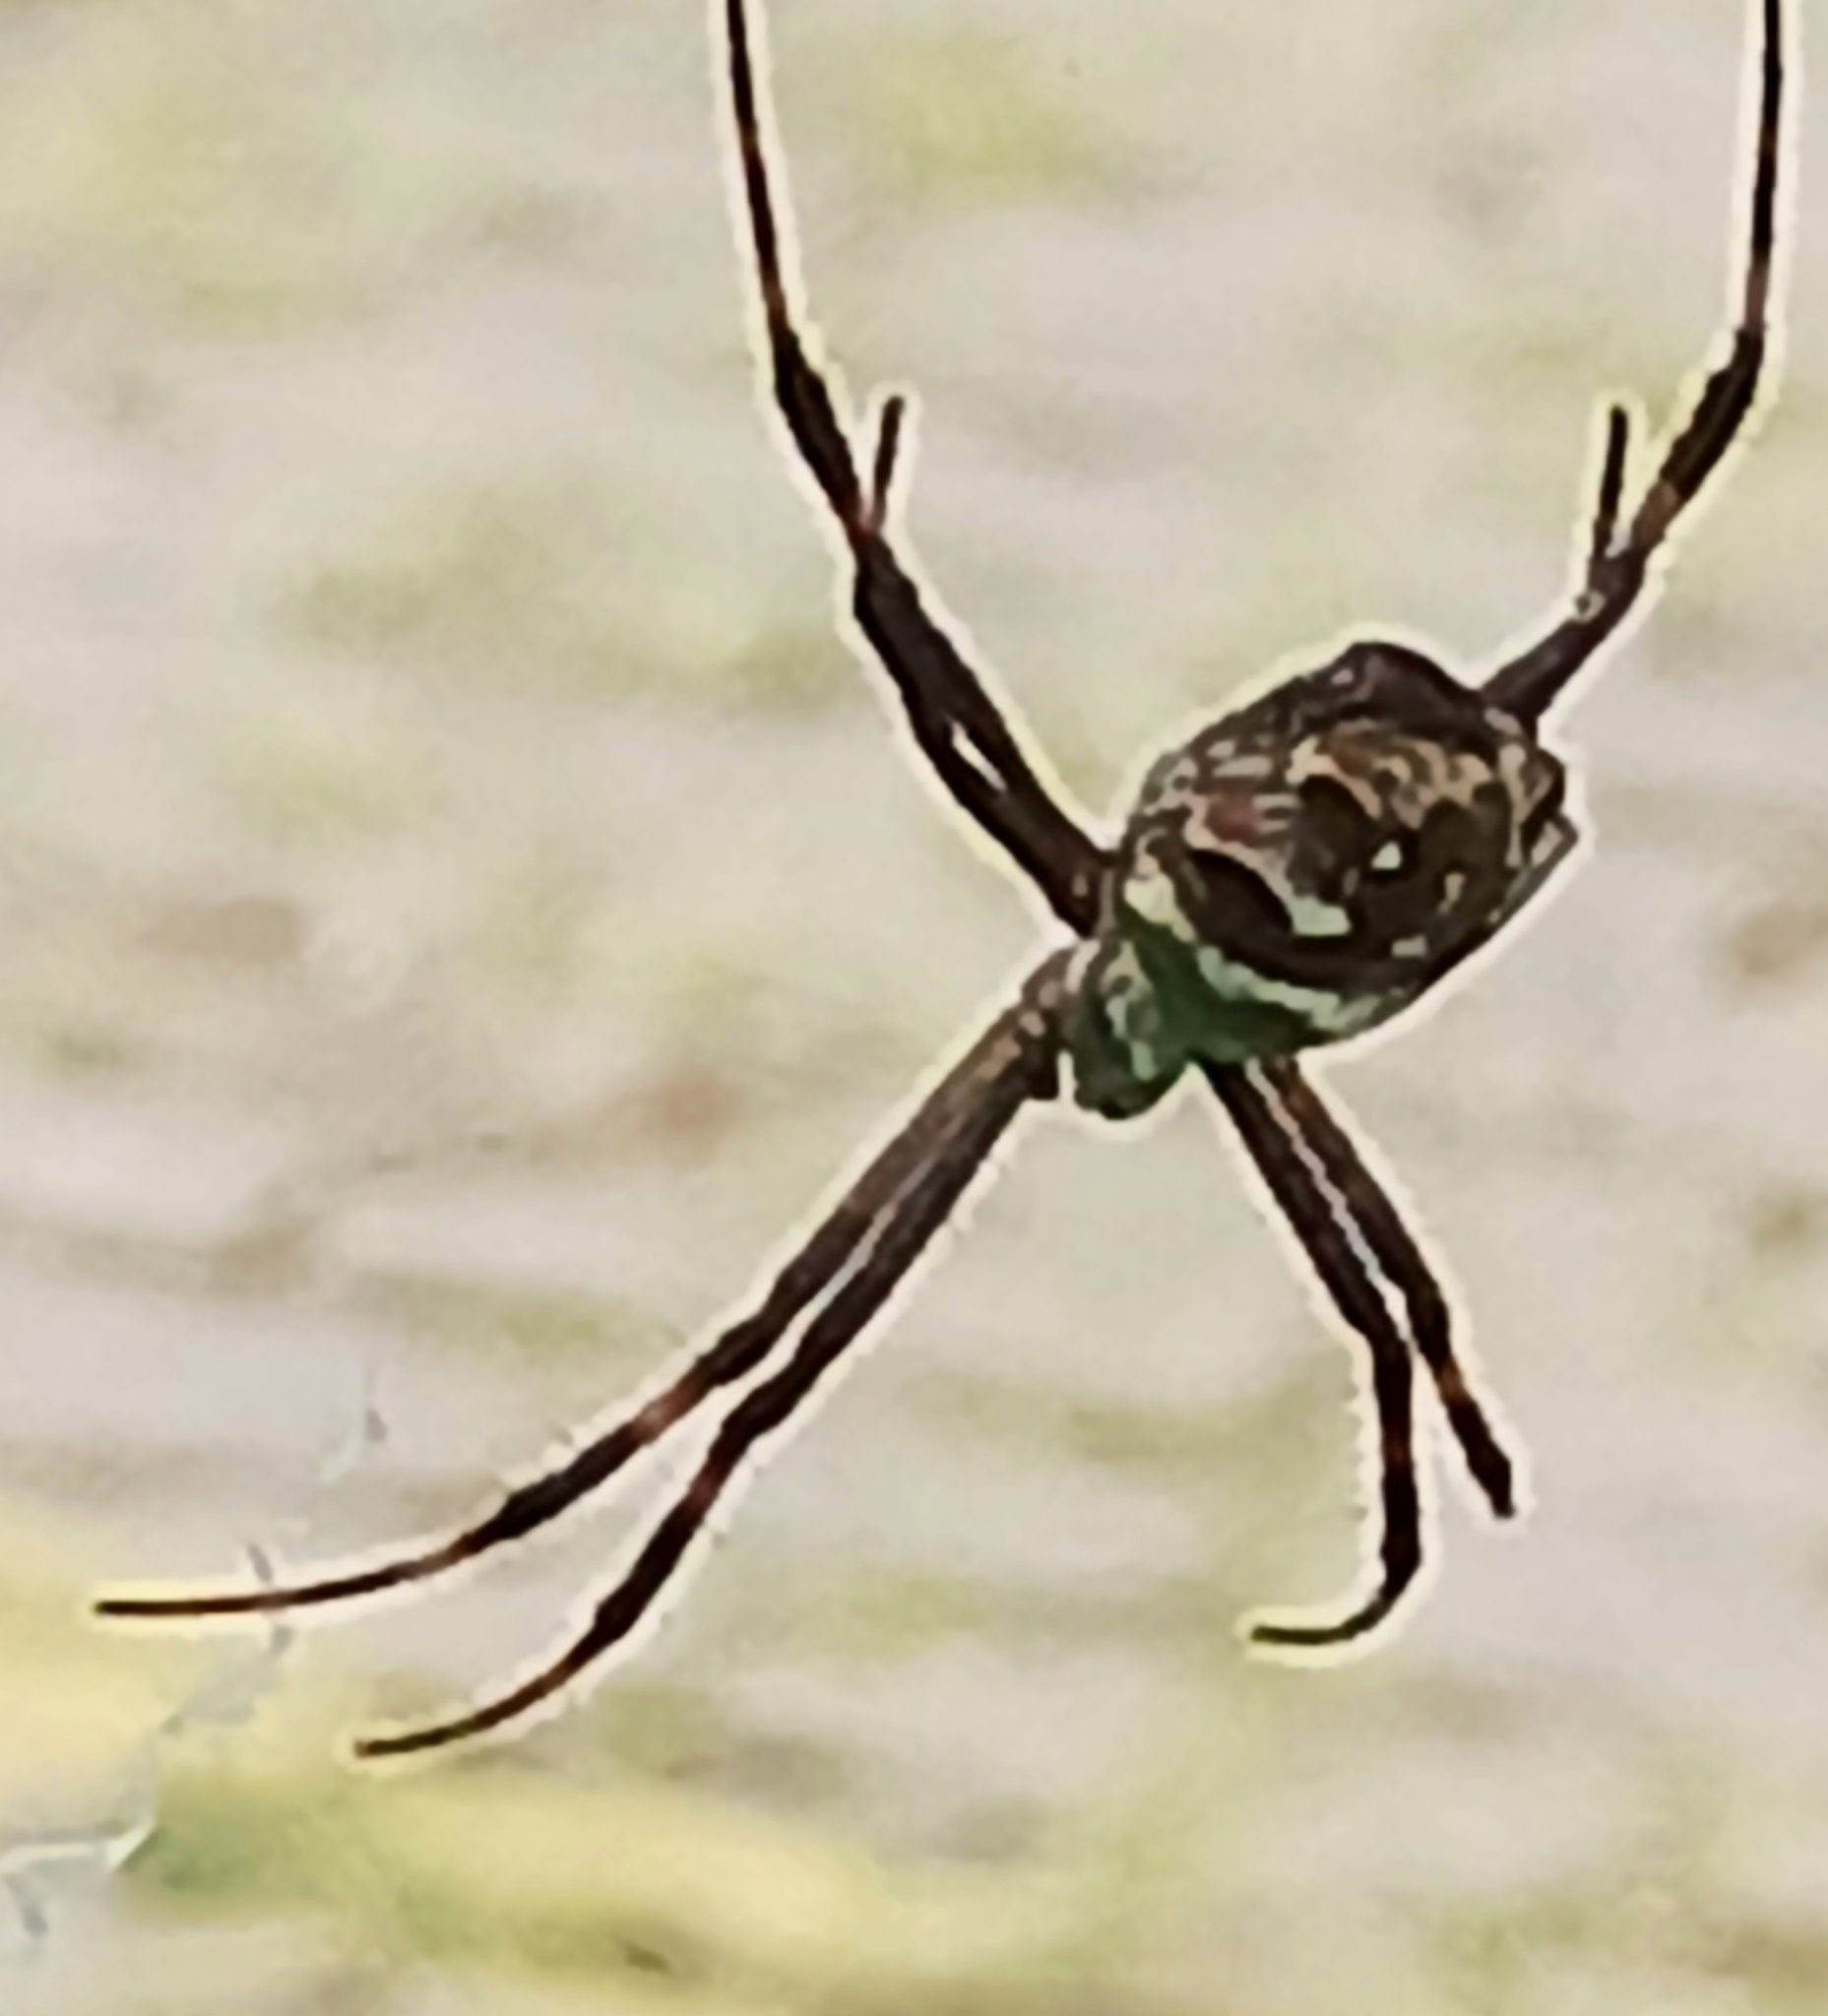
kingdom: Animalia
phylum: Arthropoda
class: Arachnida
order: Araneae
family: Araneidae
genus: Argiope
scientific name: Argiope argentata
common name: Orb weavers
